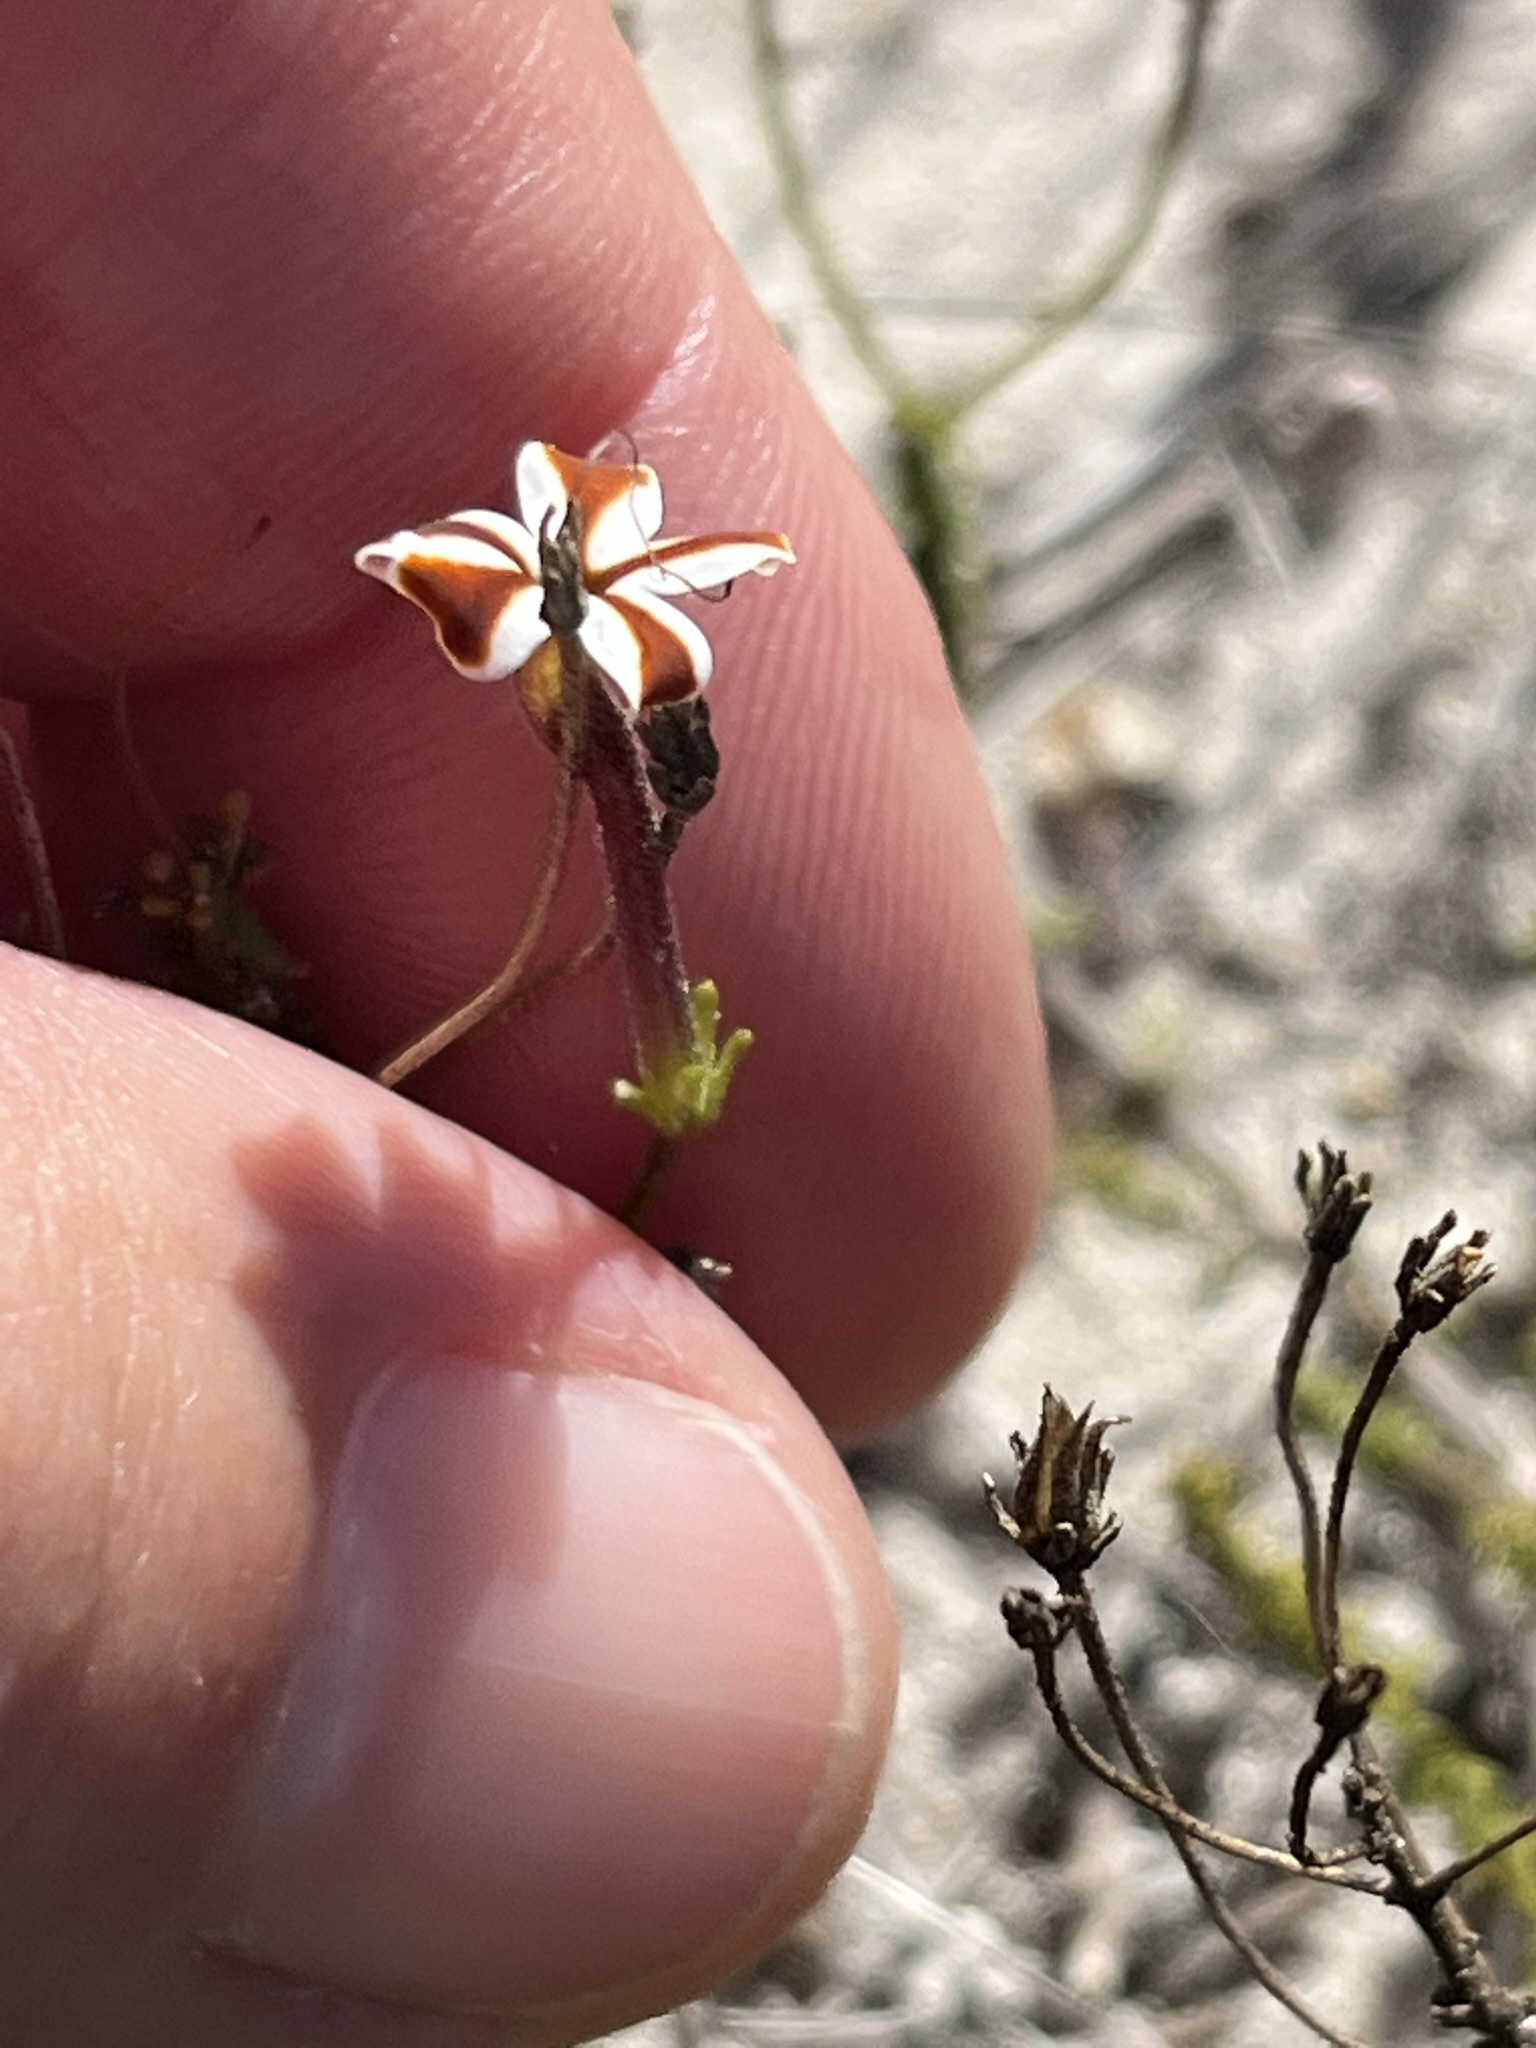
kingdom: Plantae
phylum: Tracheophyta
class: Magnoliopsida
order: Lamiales
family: Scrophulariaceae
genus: Jamesbrittenia
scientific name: Jamesbrittenia albomarginata
